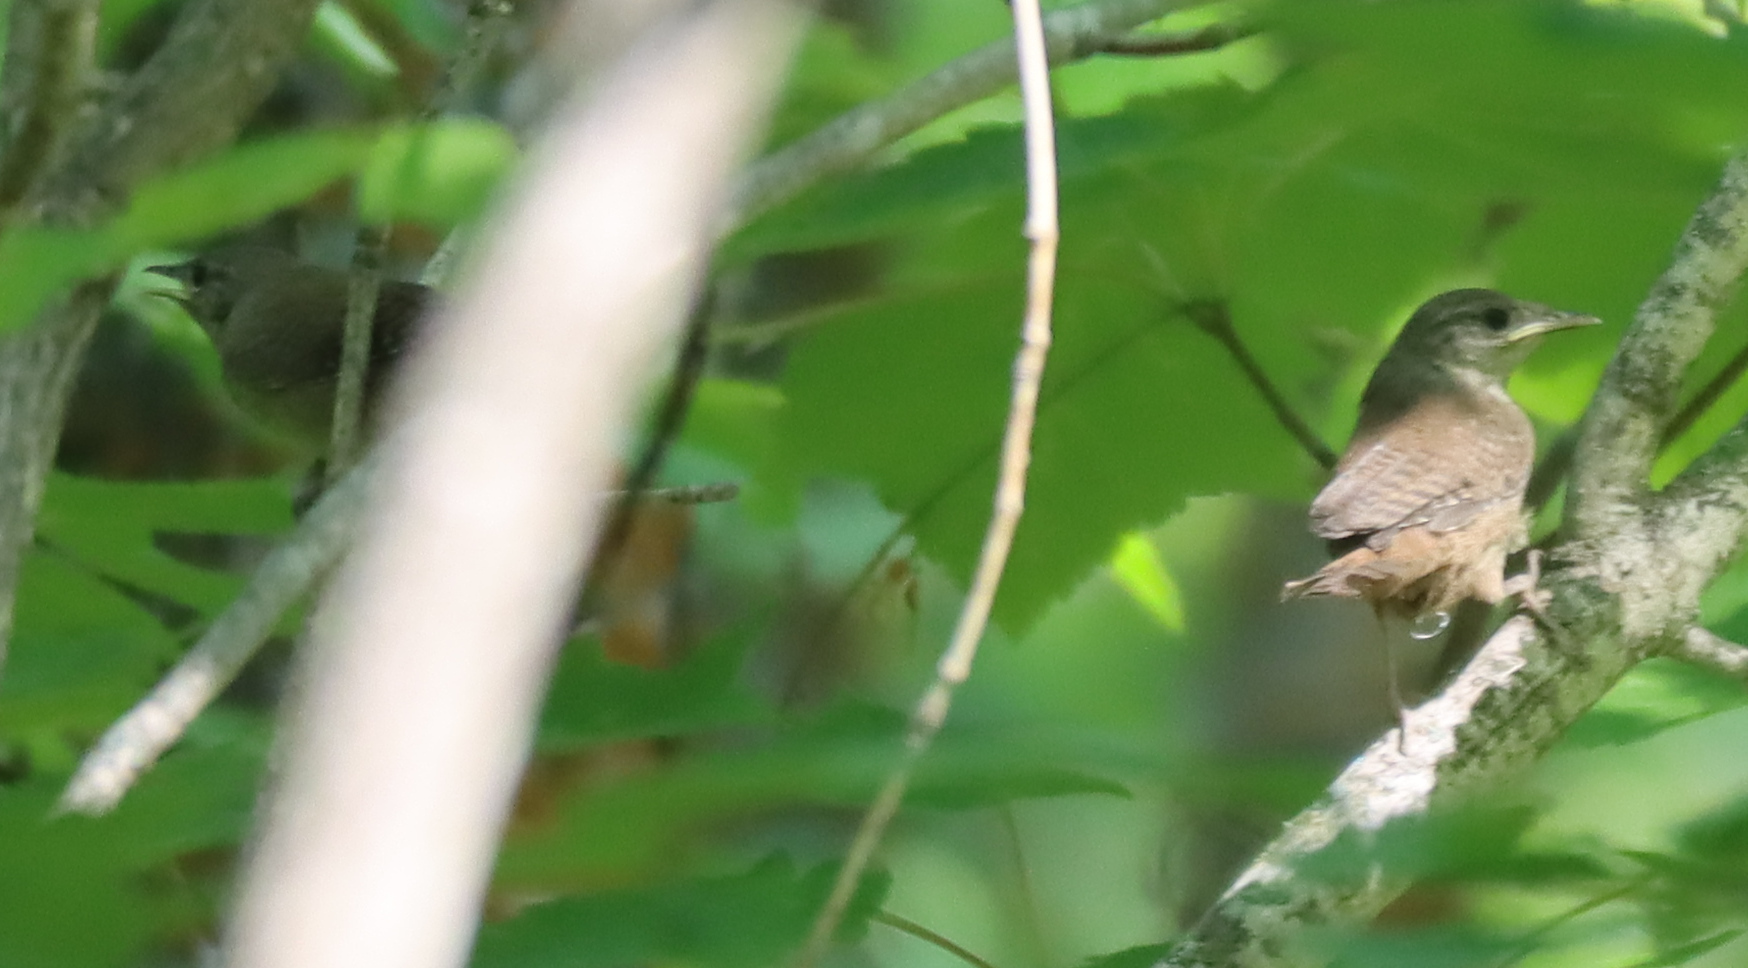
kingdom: Animalia
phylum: Chordata
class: Aves
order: Passeriformes
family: Troglodytidae
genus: Troglodytes
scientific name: Troglodytes aedon
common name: House wren
